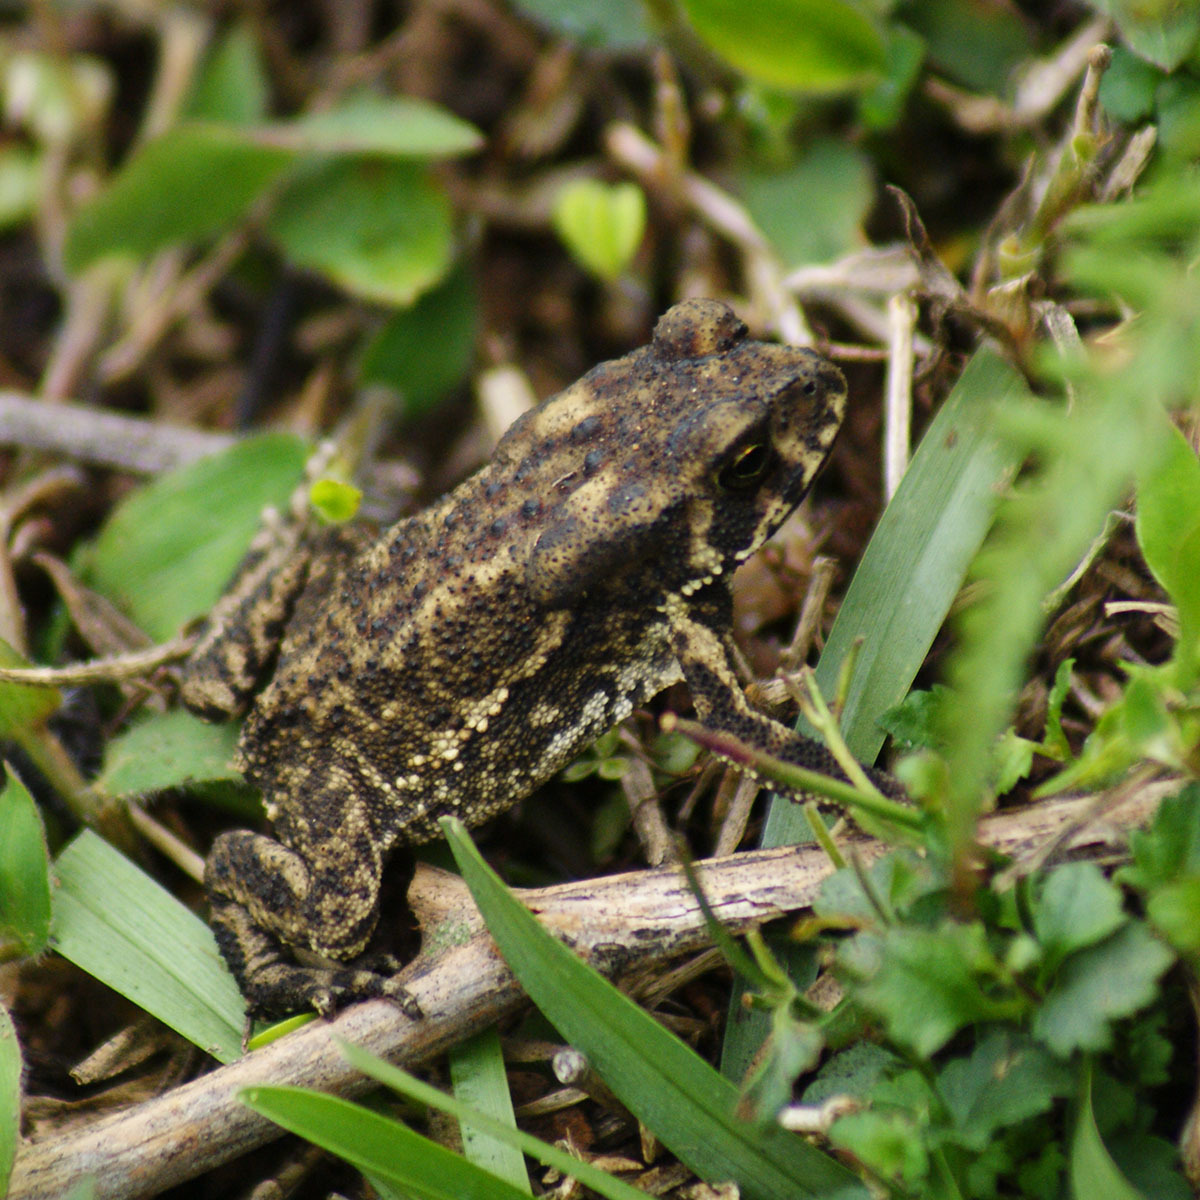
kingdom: Animalia
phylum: Chordata
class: Amphibia
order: Anura
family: Bufonidae
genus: Duttaphrynus
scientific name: Duttaphrynus melanostictus
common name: Common sunda toad
